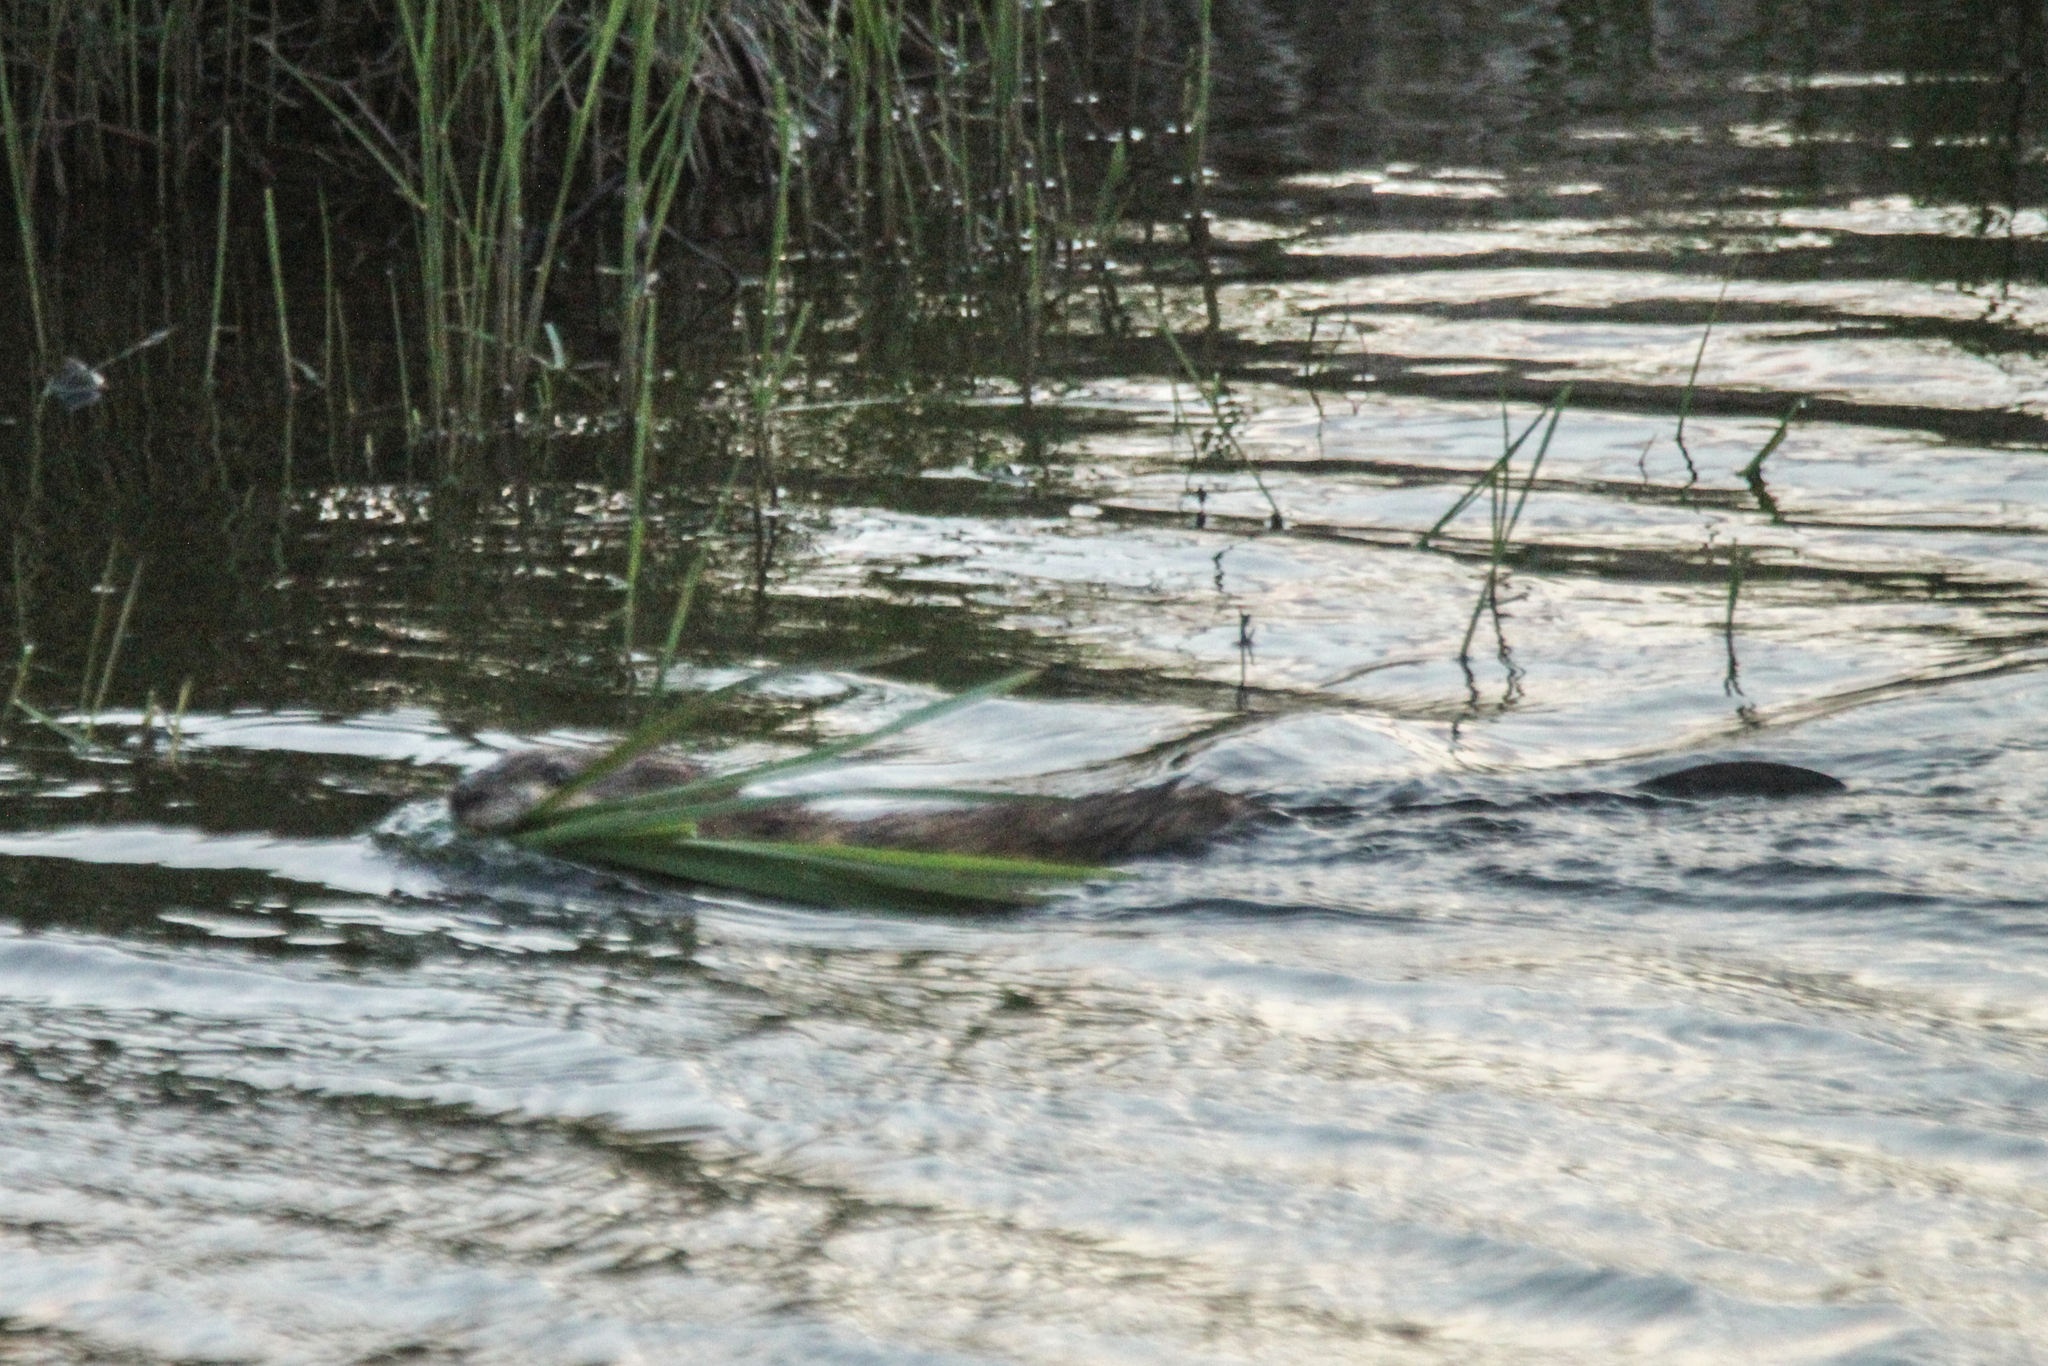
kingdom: Animalia
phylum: Chordata
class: Mammalia
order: Rodentia
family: Cricetidae
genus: Ondatra
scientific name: Ondatra zibethicus
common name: Muskrat
